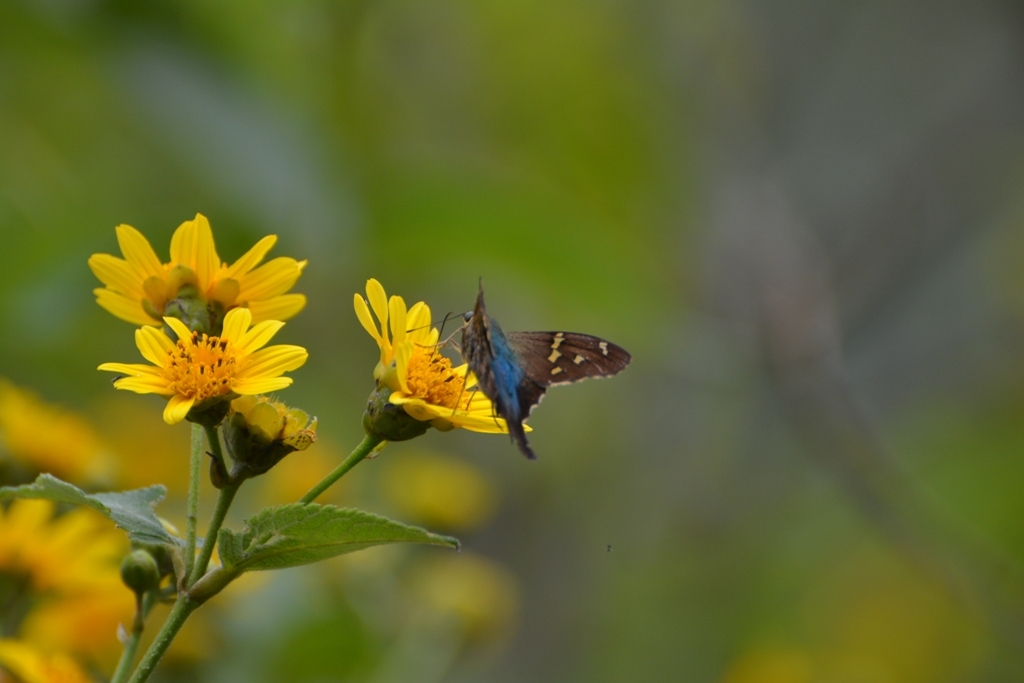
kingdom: Animalia
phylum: Arthropoda
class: Insecta
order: Lepidoptera
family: Hesperiidae
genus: Urbanus
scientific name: Urbanus proteus
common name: Long-tailed skipper
